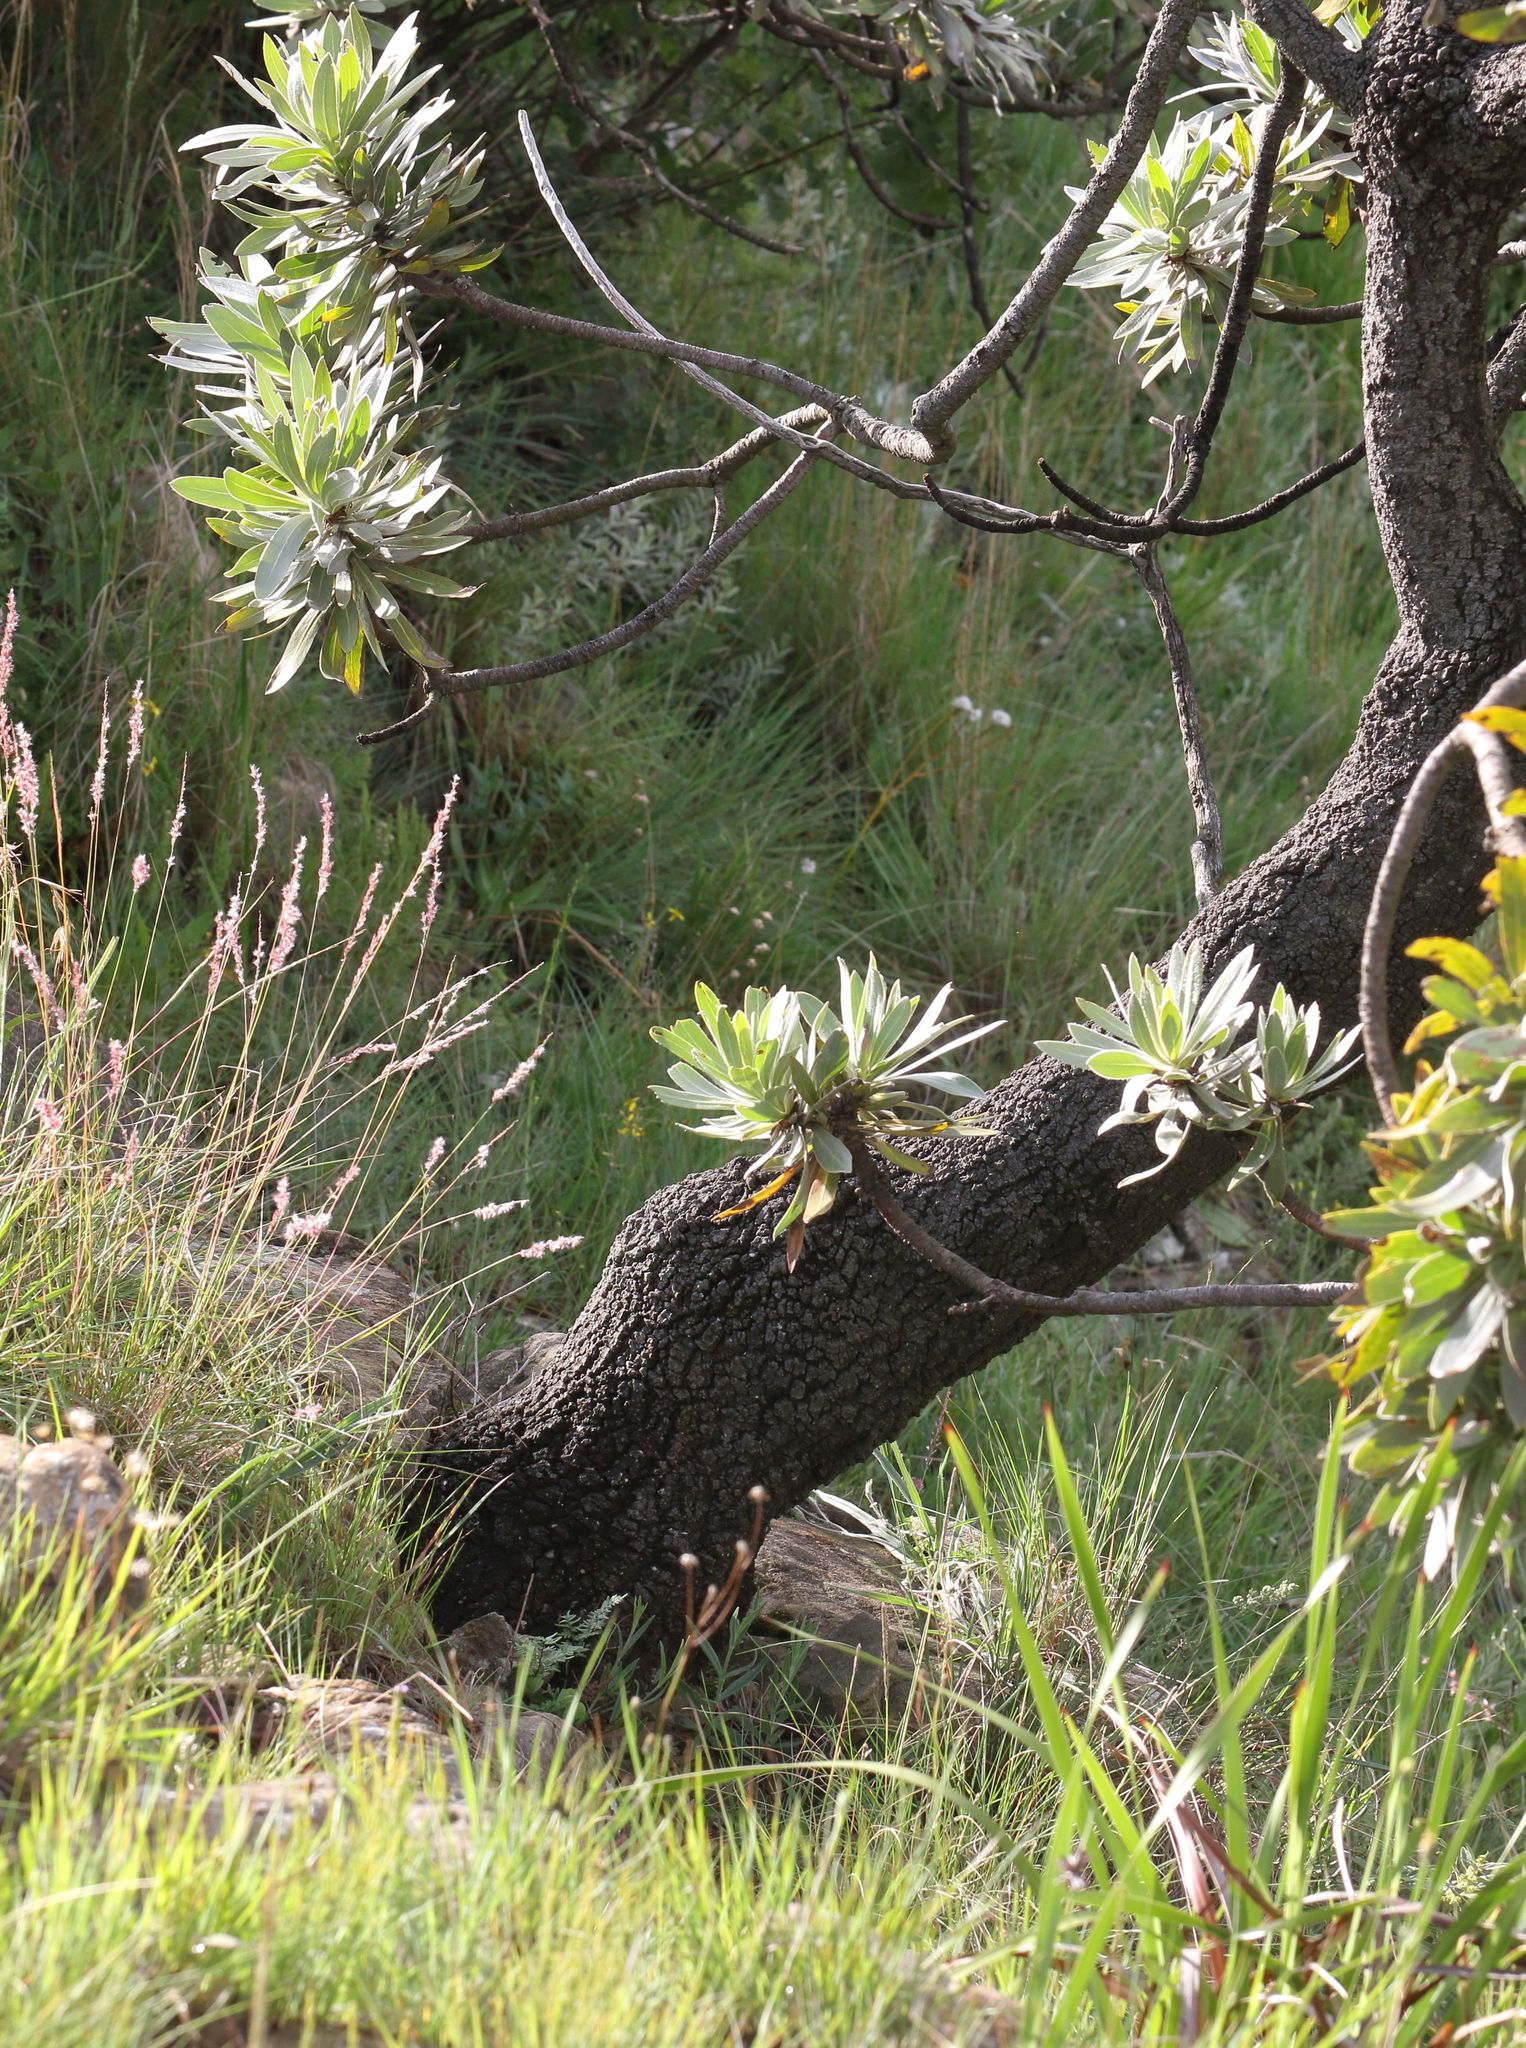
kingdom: Plantae
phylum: Tracheophyta
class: Magnoliopsida
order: Proteales
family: Proteaceae
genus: Protea
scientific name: Protea roupelliae
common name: Silver sugarbush
